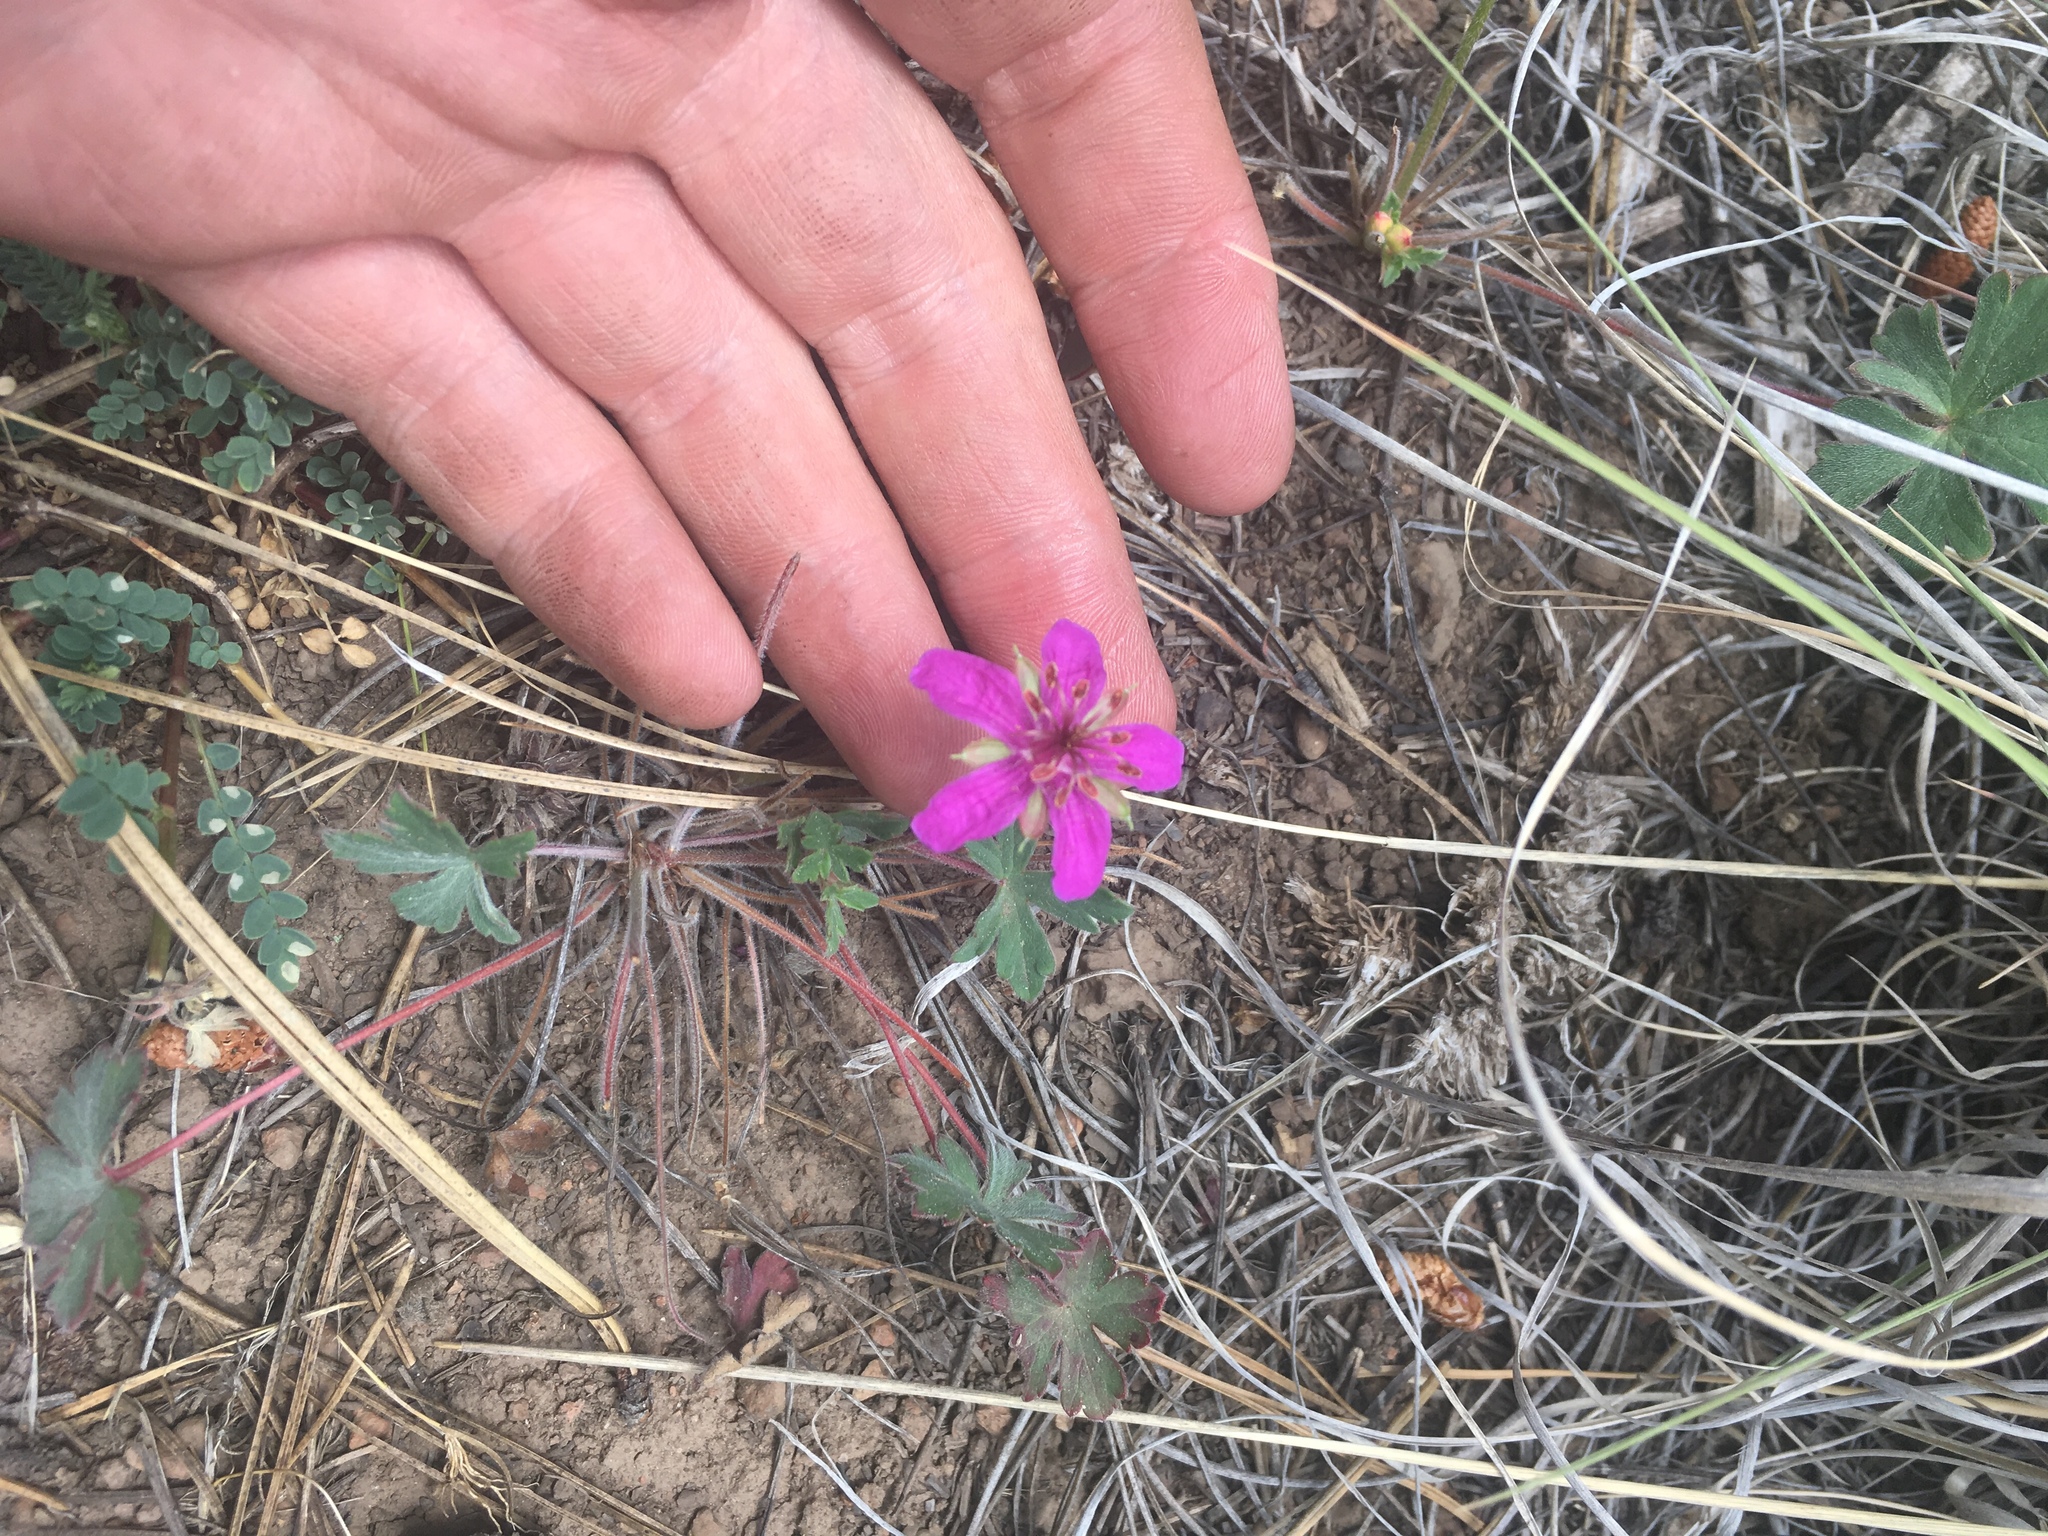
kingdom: Plantae
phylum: Tracheophyta
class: Magnoliopsida
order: Geraniales
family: Geraniaceae
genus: Geranium
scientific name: Geranium caespitosum
